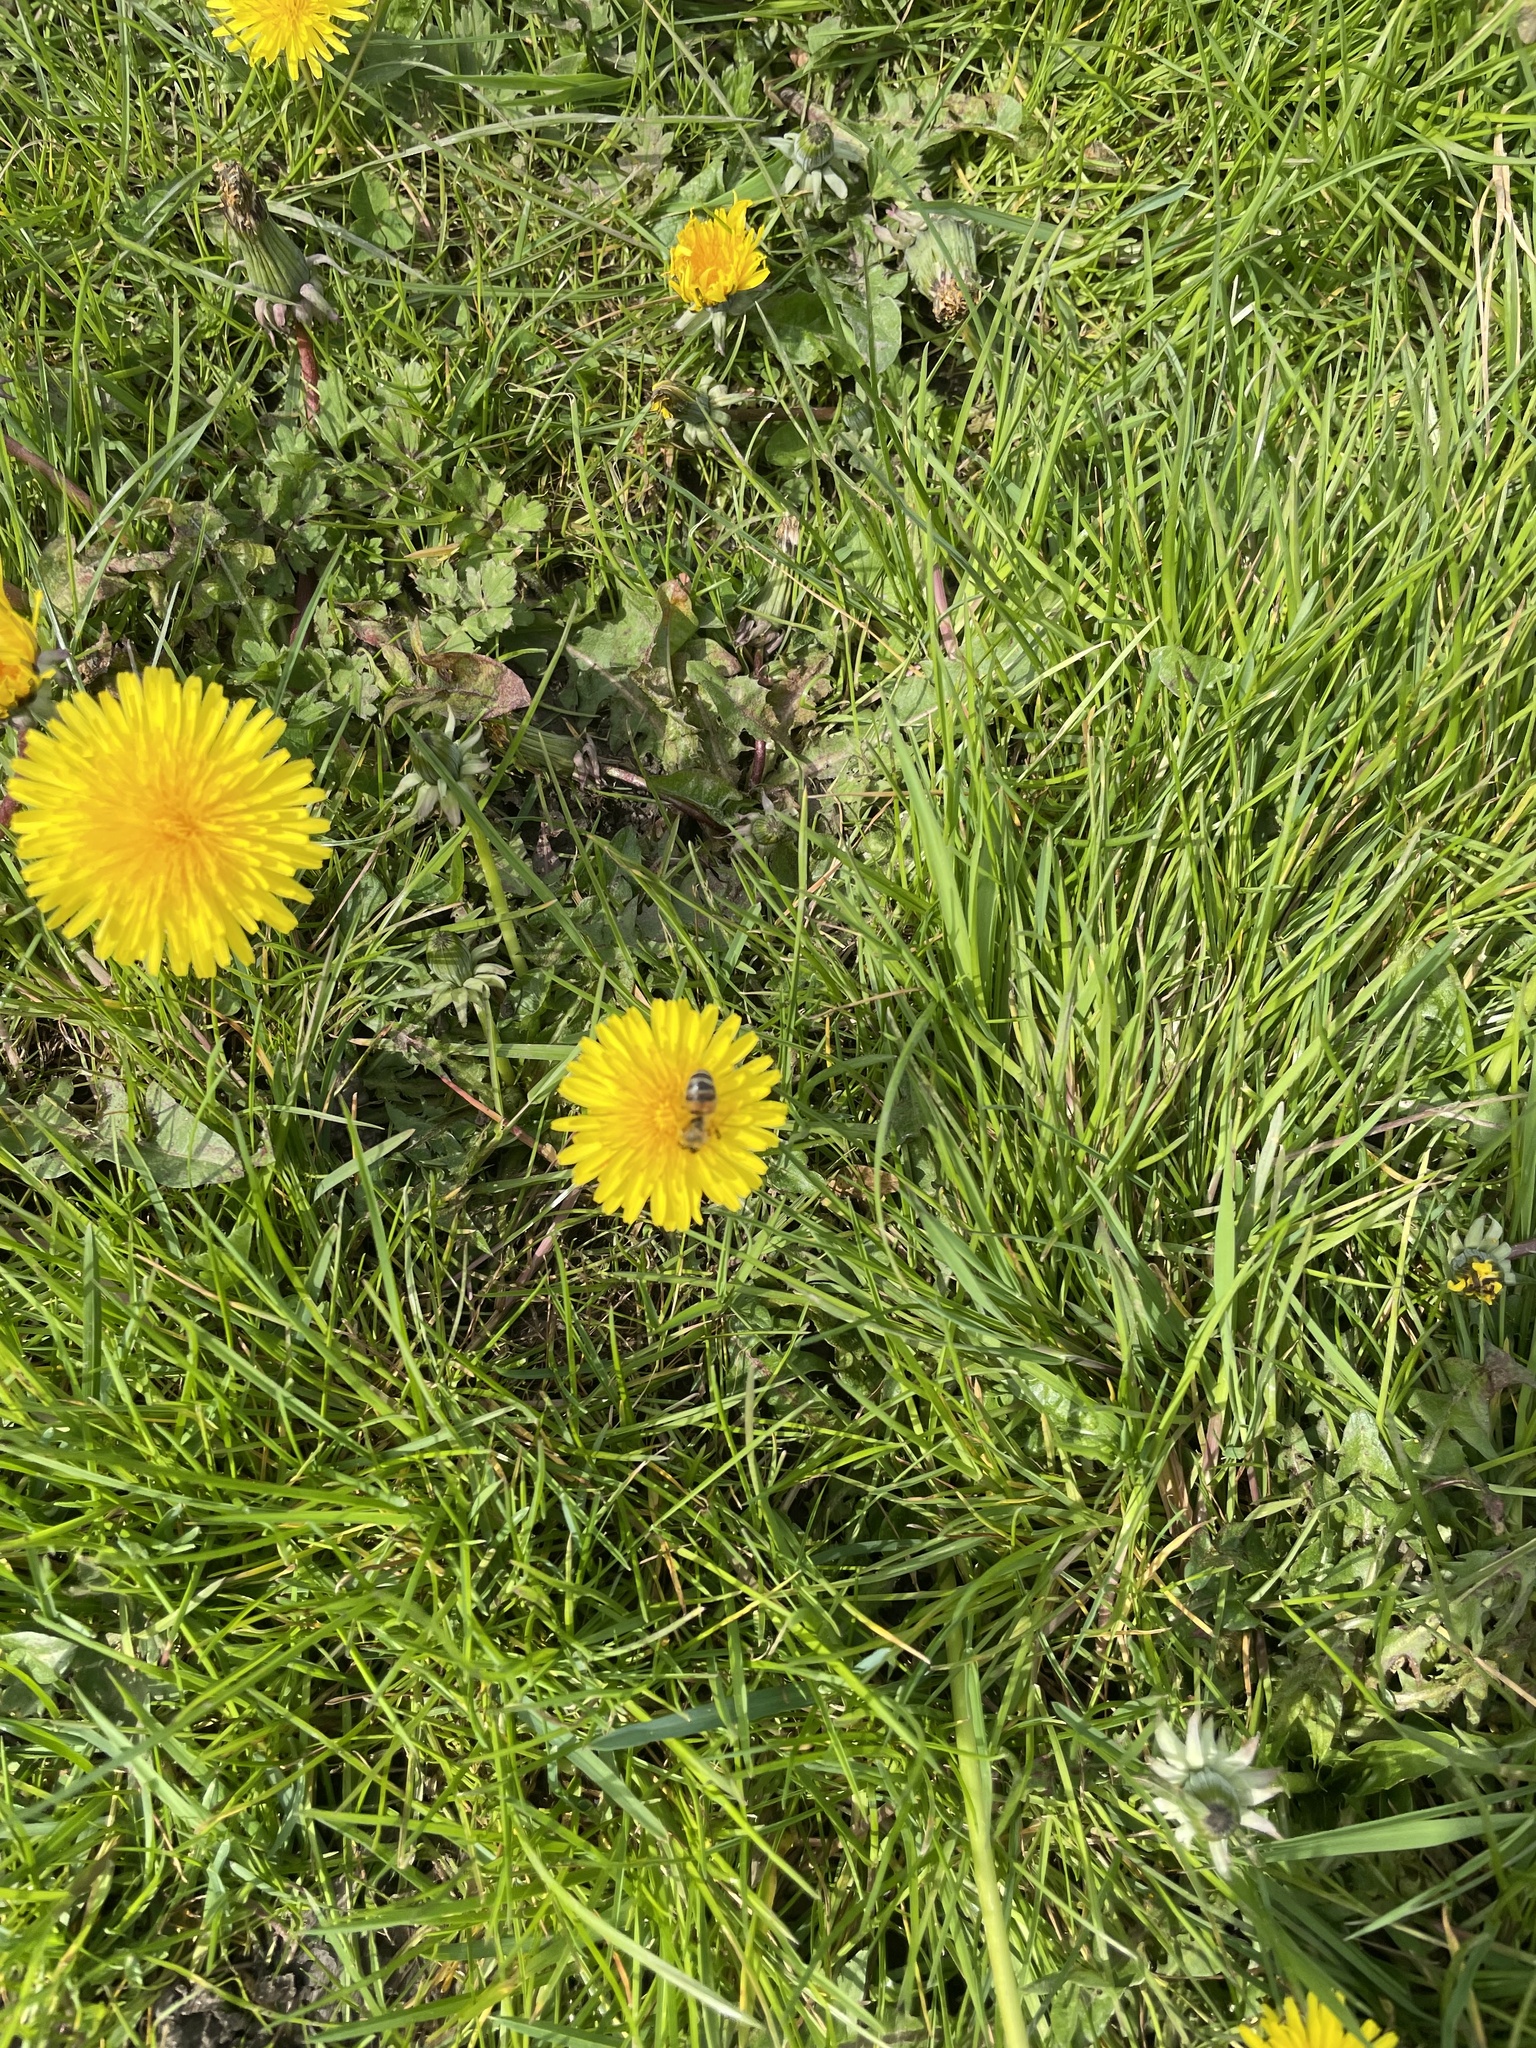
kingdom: Animalia
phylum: Arthropoda
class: Insecta
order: Hymenoptera
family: Apidae
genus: Apis
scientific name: Apis mellifera
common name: Honey bee
